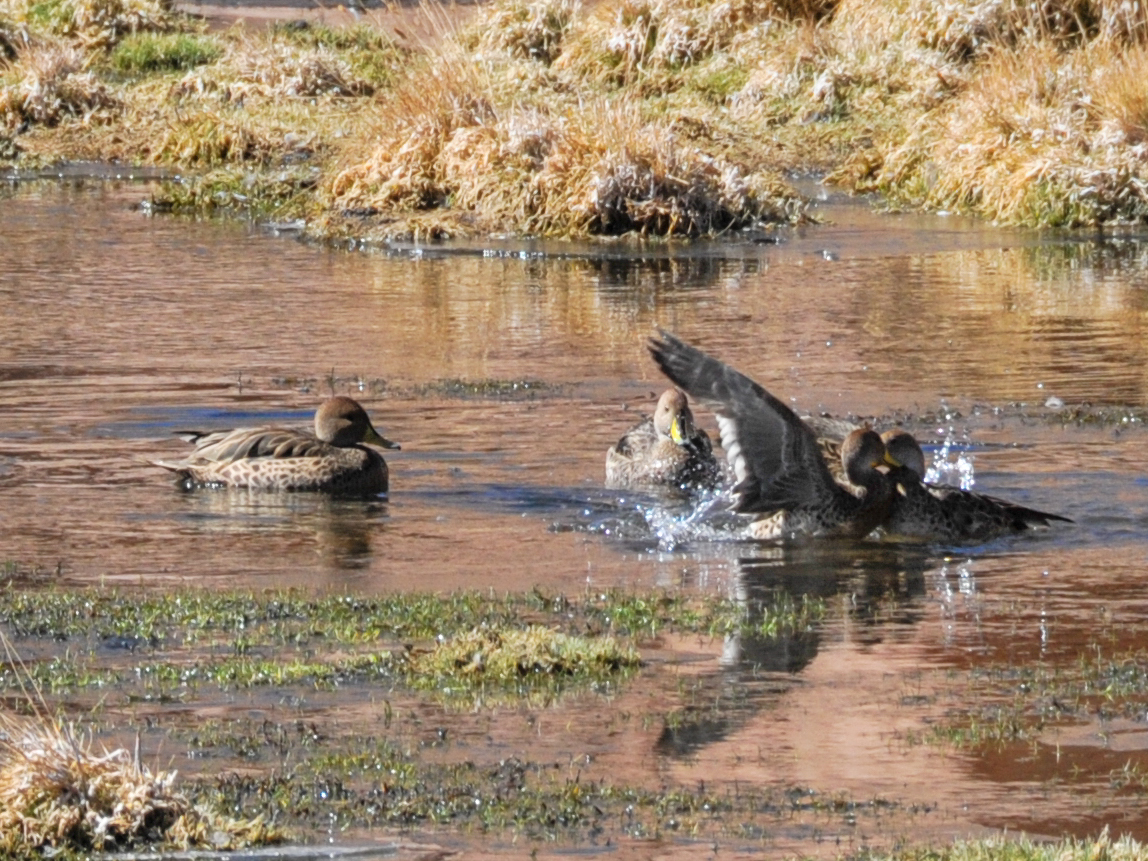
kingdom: Animalia
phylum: Chordata
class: Aves
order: Anseriformes
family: Anatidae
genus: Anas
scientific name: Anas georgica
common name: Yellow-billed pintail
